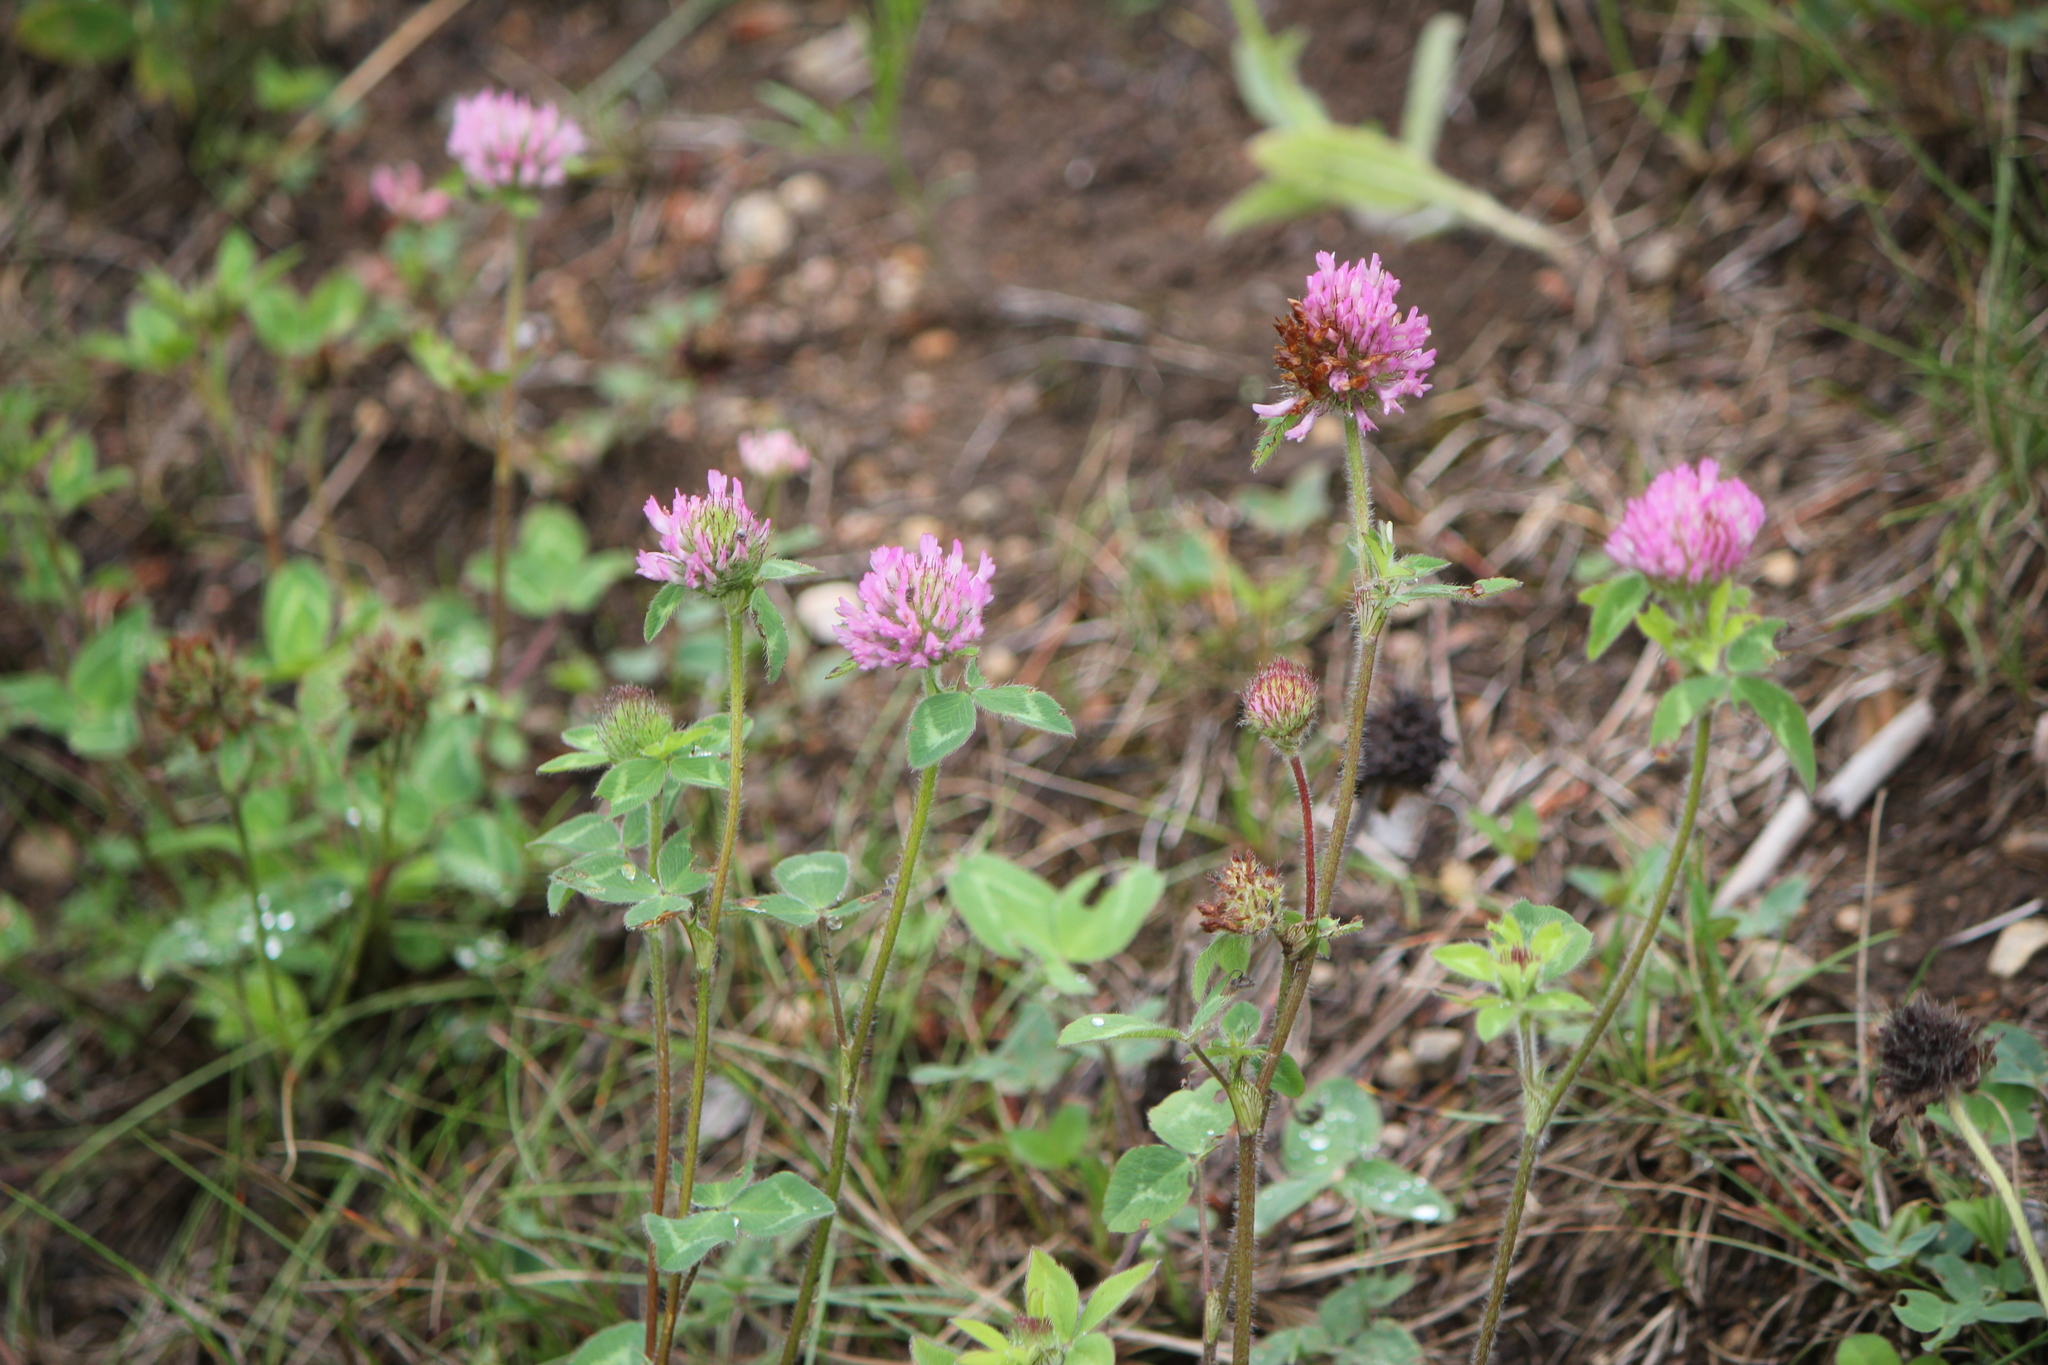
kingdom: Plantae
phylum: Tracheophyta
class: Magnoliopsida
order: Fabales
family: Fabaceae
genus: Trifolium
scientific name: Trifolium pratense
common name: Red clover
